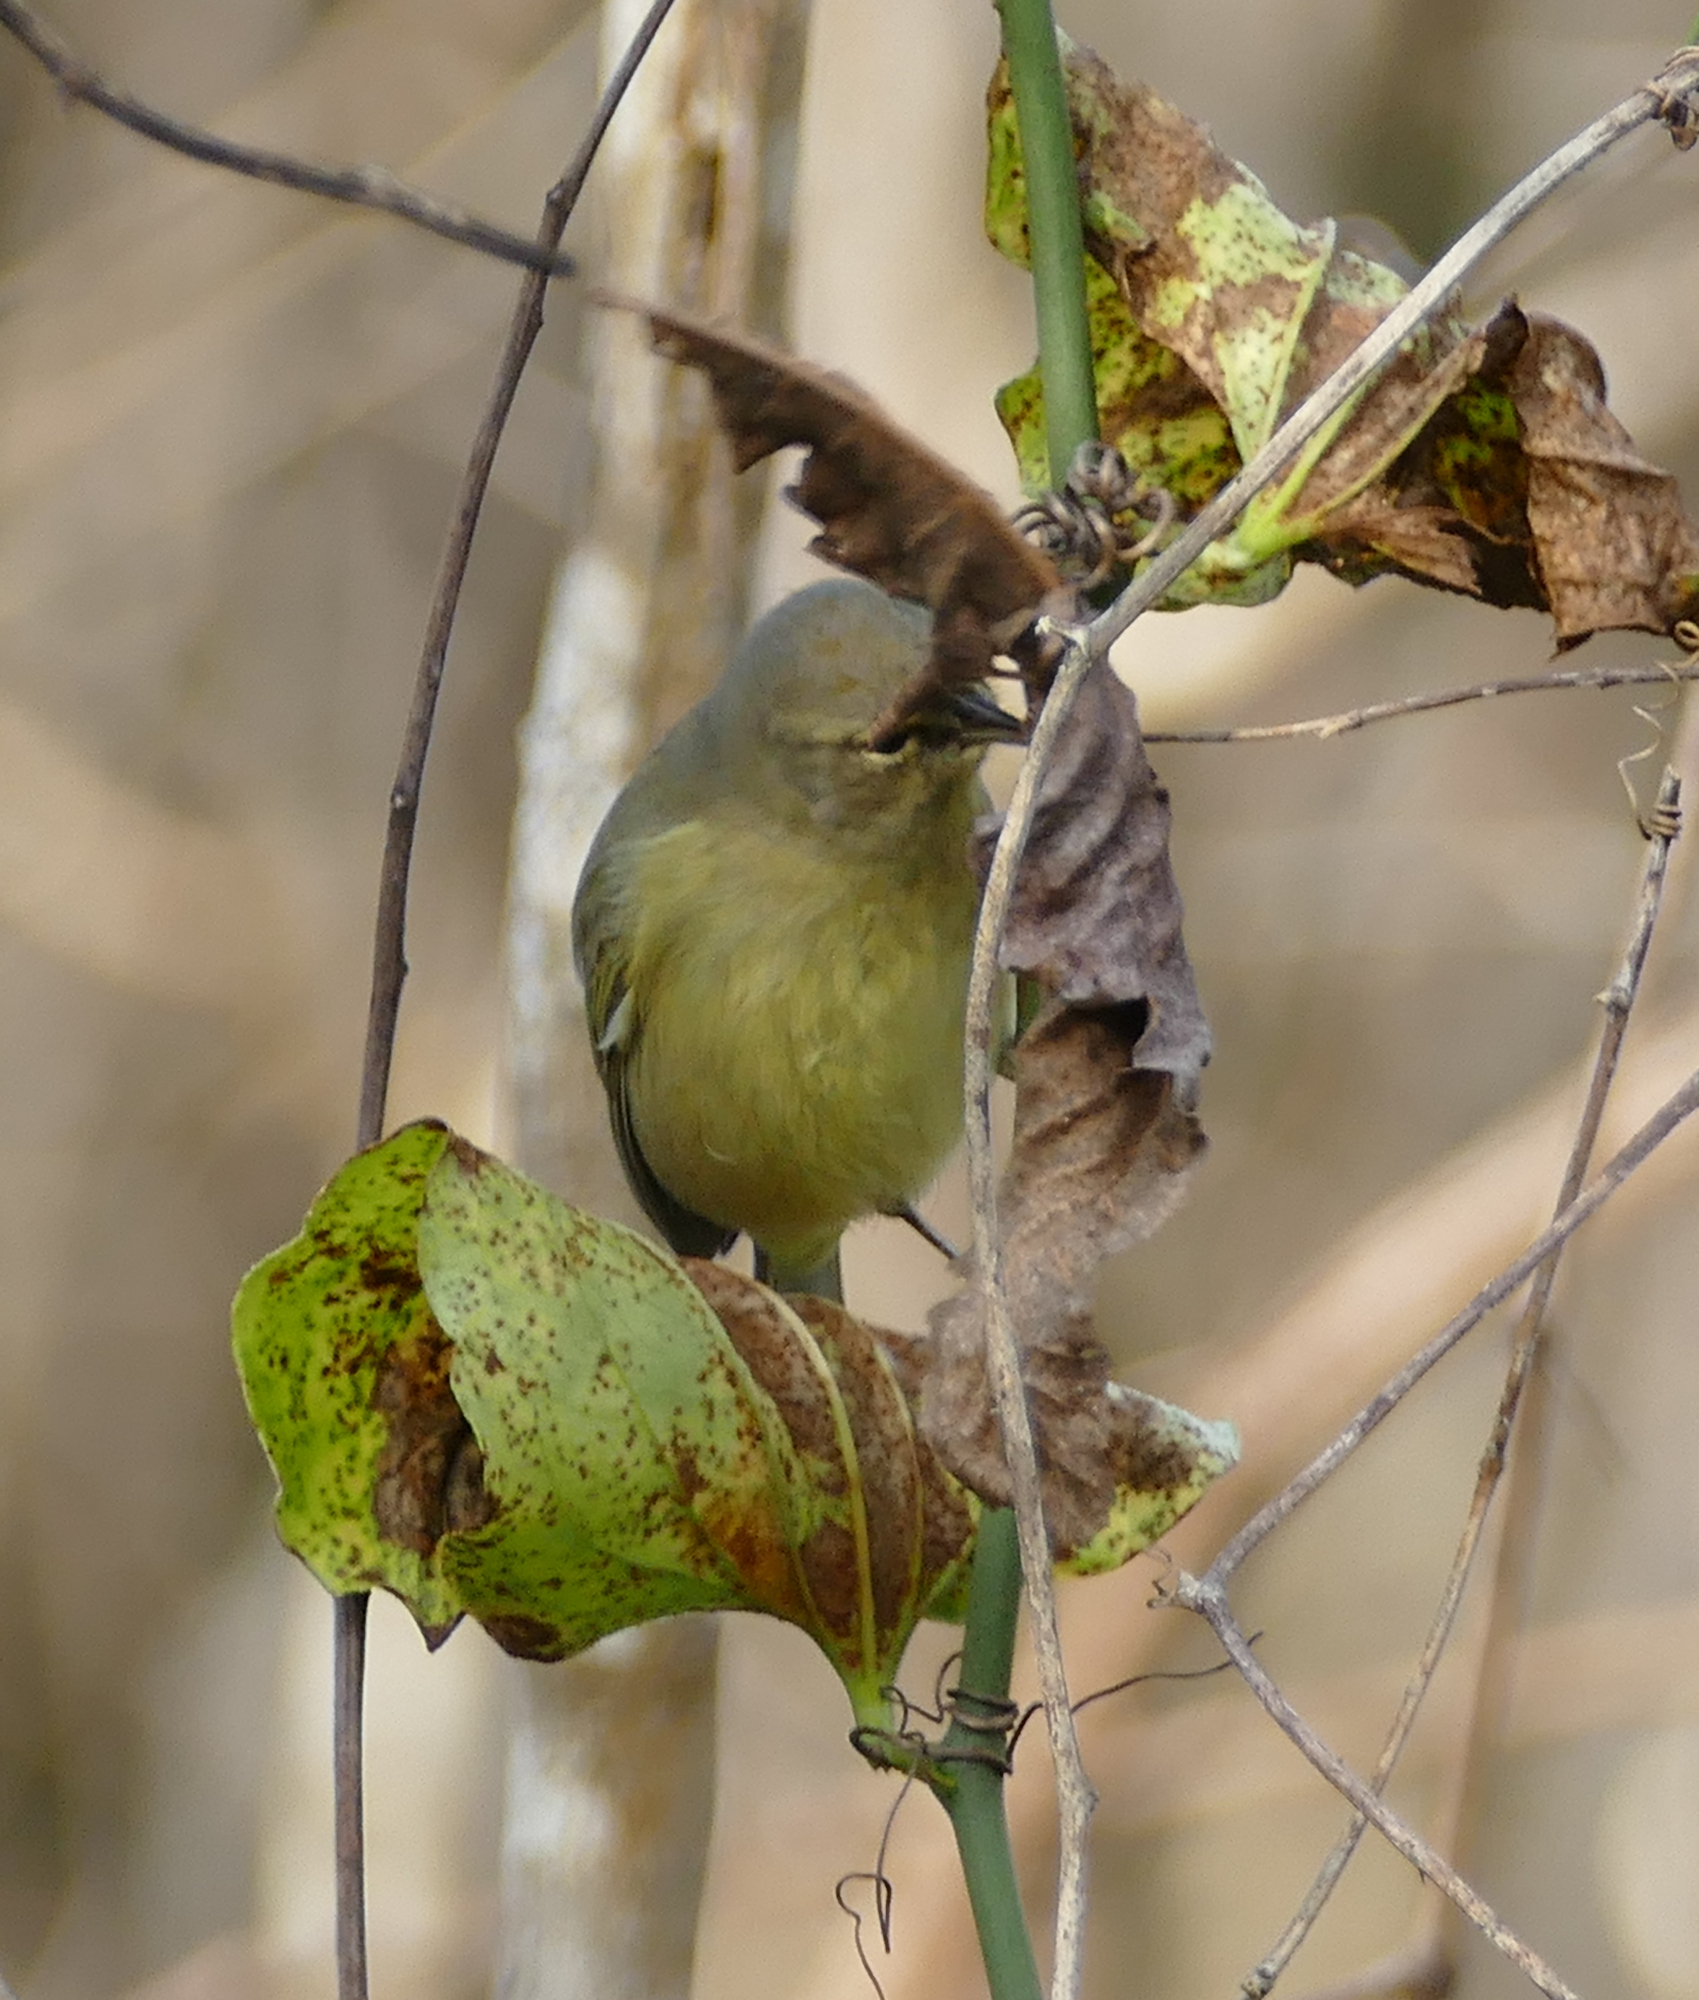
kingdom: Animalia
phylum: Chordata
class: Aves
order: Passeriformes
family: Parulidae
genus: Leiothlypis
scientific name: Leiothlypis celata
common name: Orange-crowned warbler
